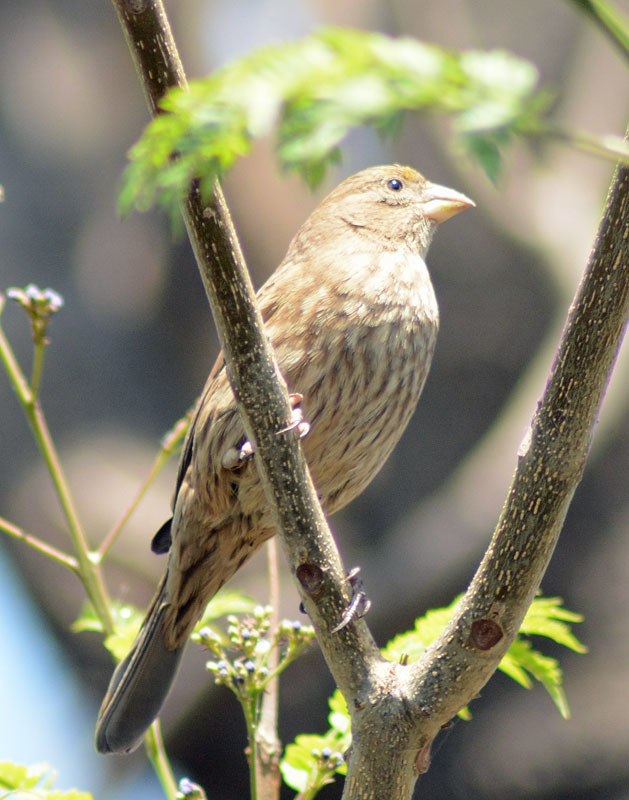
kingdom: Animalia
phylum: Chordata
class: Aves
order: Passeriformes
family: Fringillidae
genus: Haemorhous
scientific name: Haemorhous mexicanus
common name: House finch
